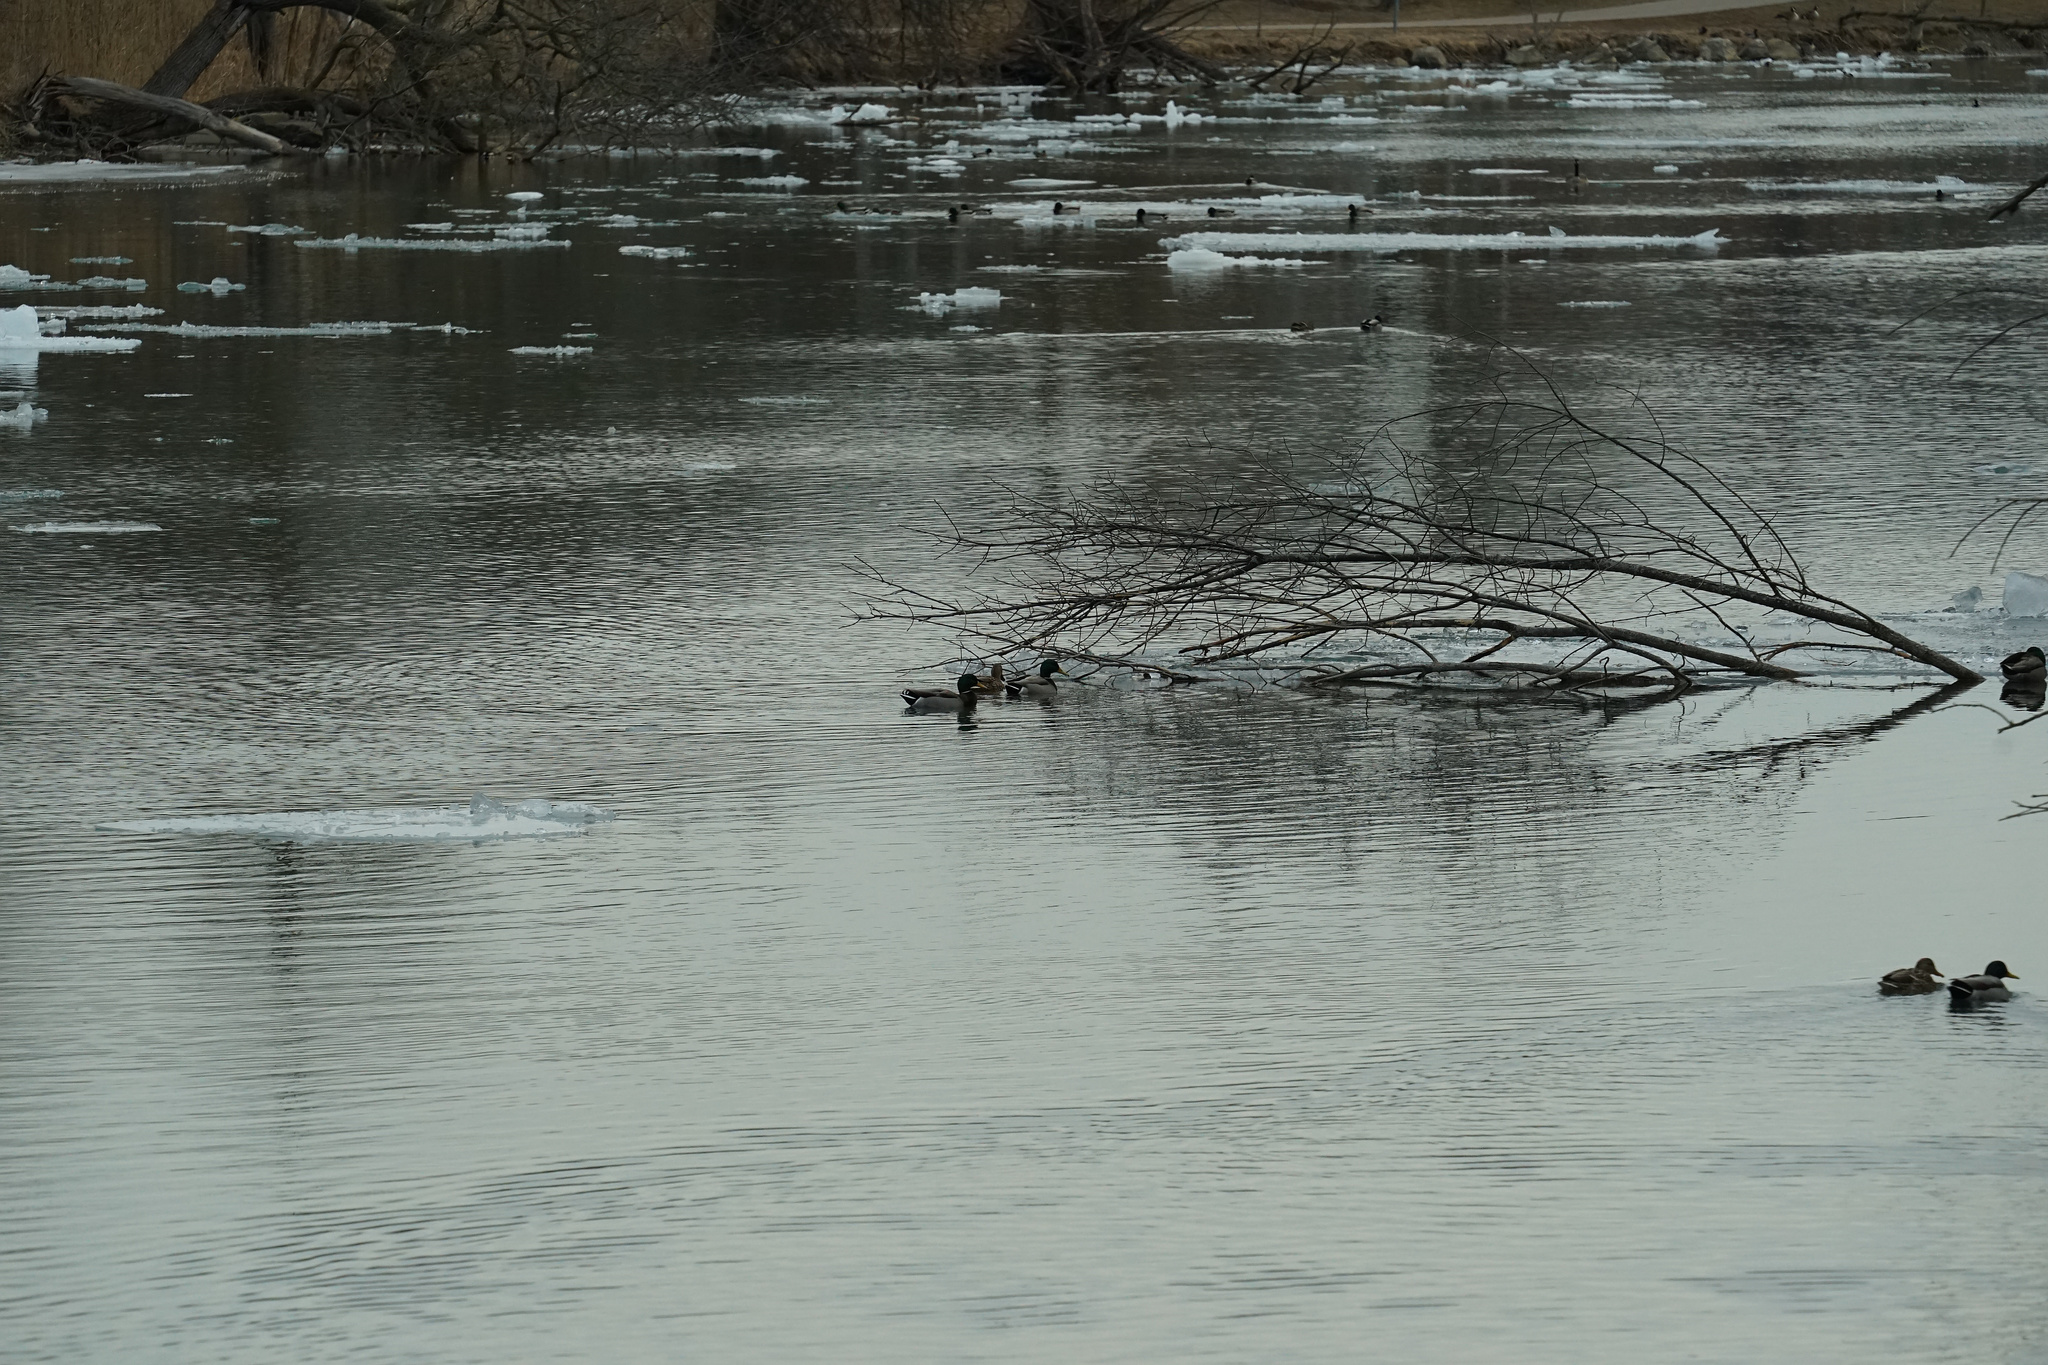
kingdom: Animalia
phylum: Chordata
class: Aves
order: Anseriformes
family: Anatidae
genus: Anas
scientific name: Anas platyrhynchos
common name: Mallard
